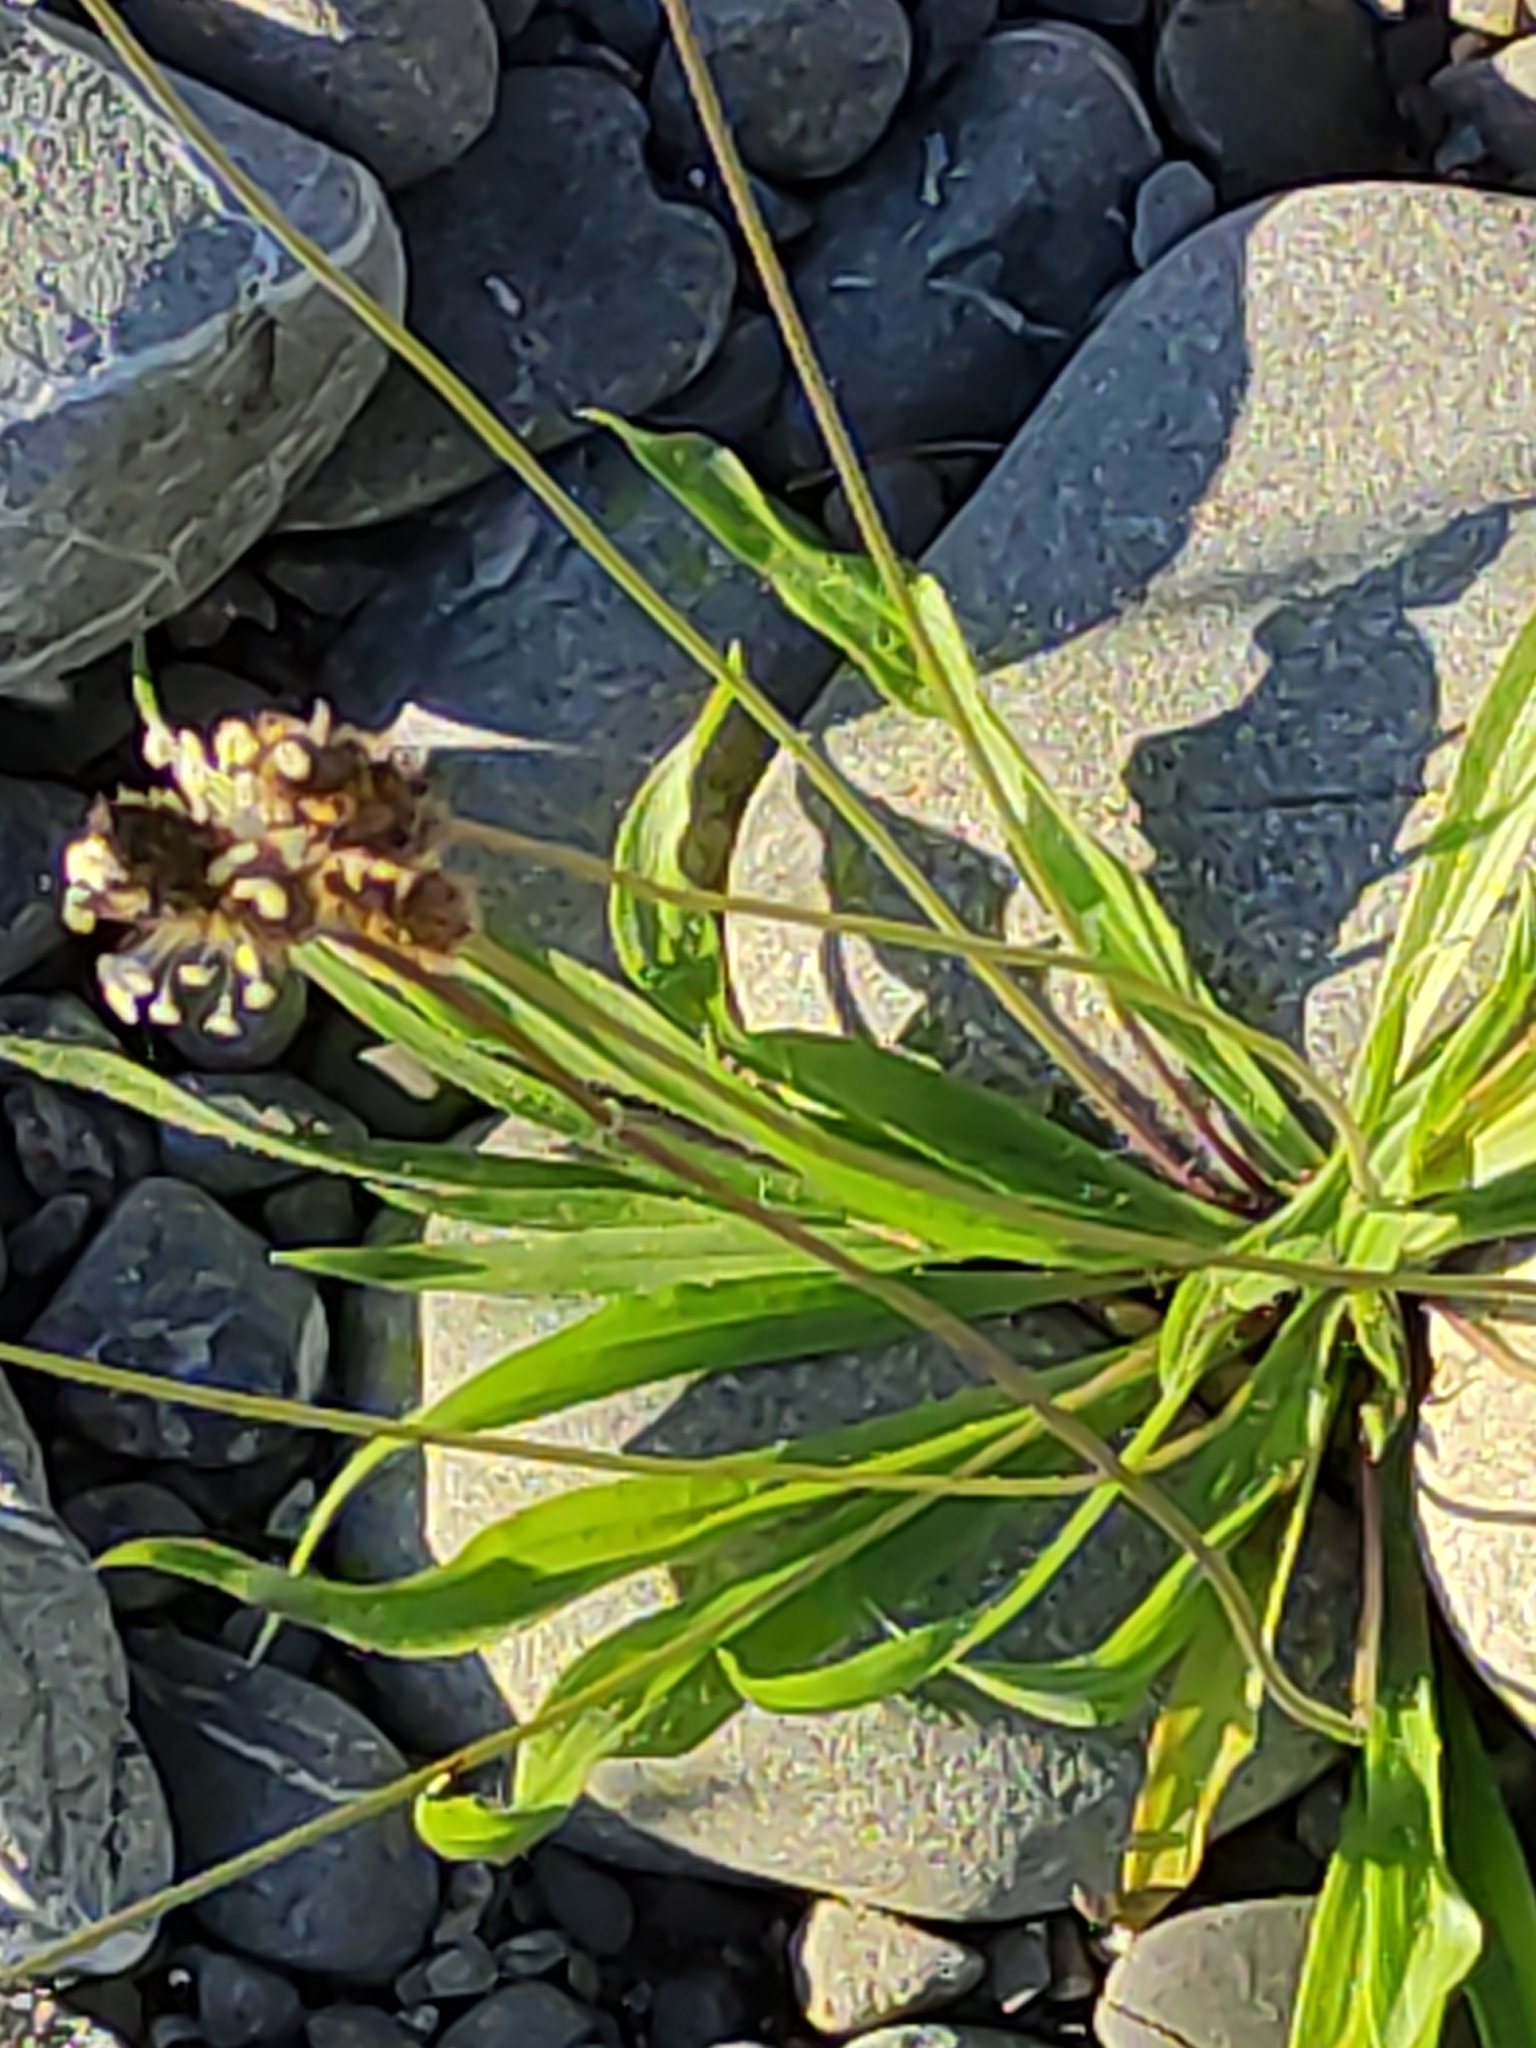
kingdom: Plantae
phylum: Tracheophyta
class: Magnoliopsida
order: Lamiales
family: Plantaginaceae
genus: Plantago
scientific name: Plantago lanceolata
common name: Ribwort plantain
